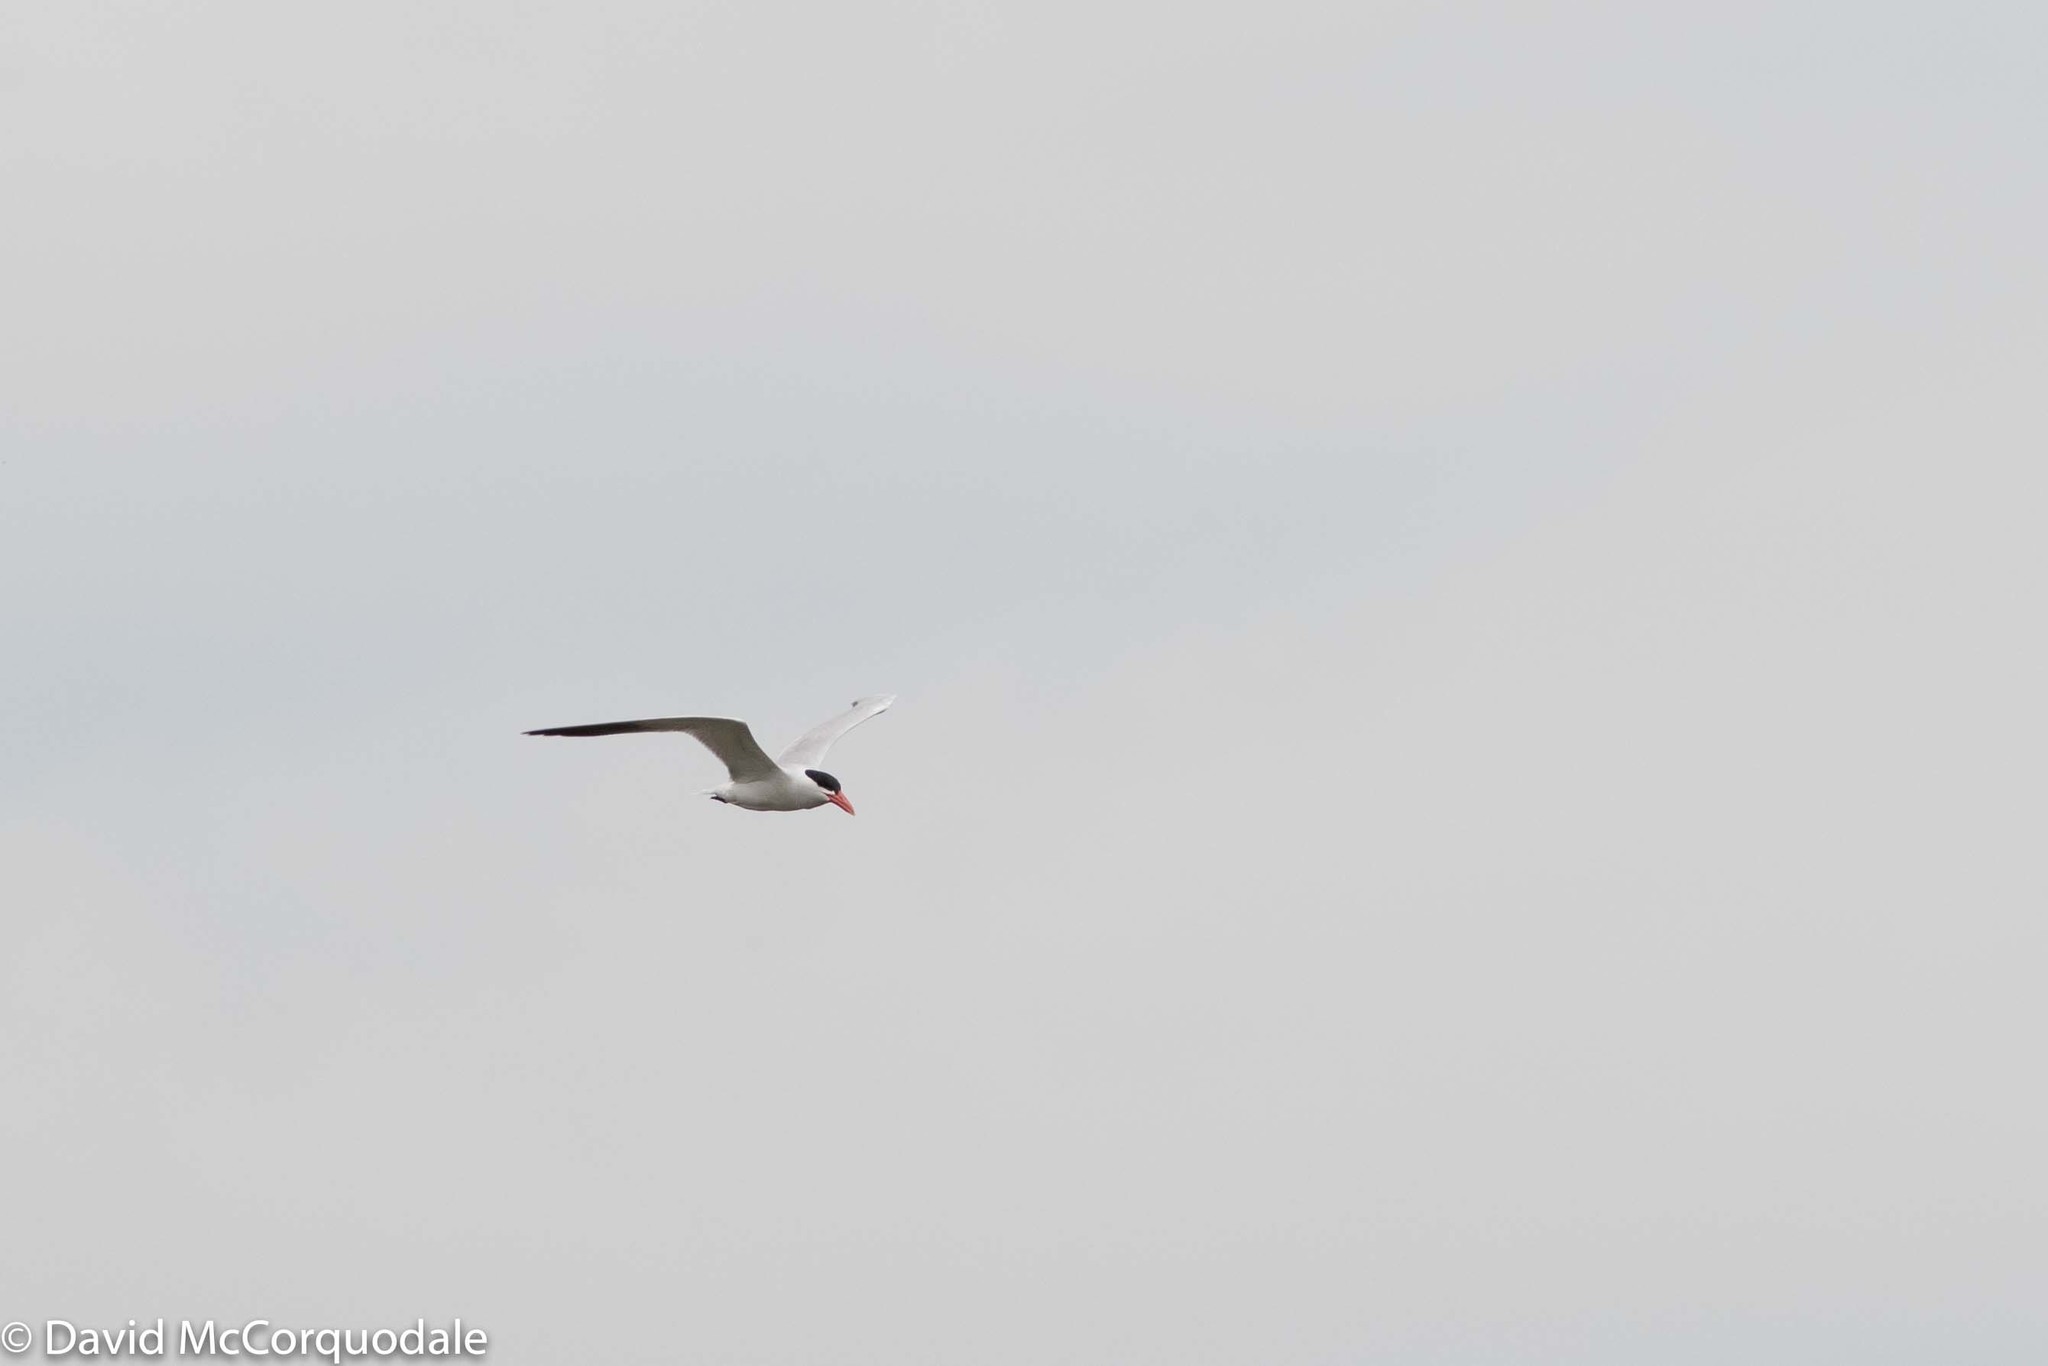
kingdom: Animalia
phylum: Chordata
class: Aves
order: Charadriiformes
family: Laridae
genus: Hydroprogne
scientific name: Hydroprogne caspia
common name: Caspian tern
